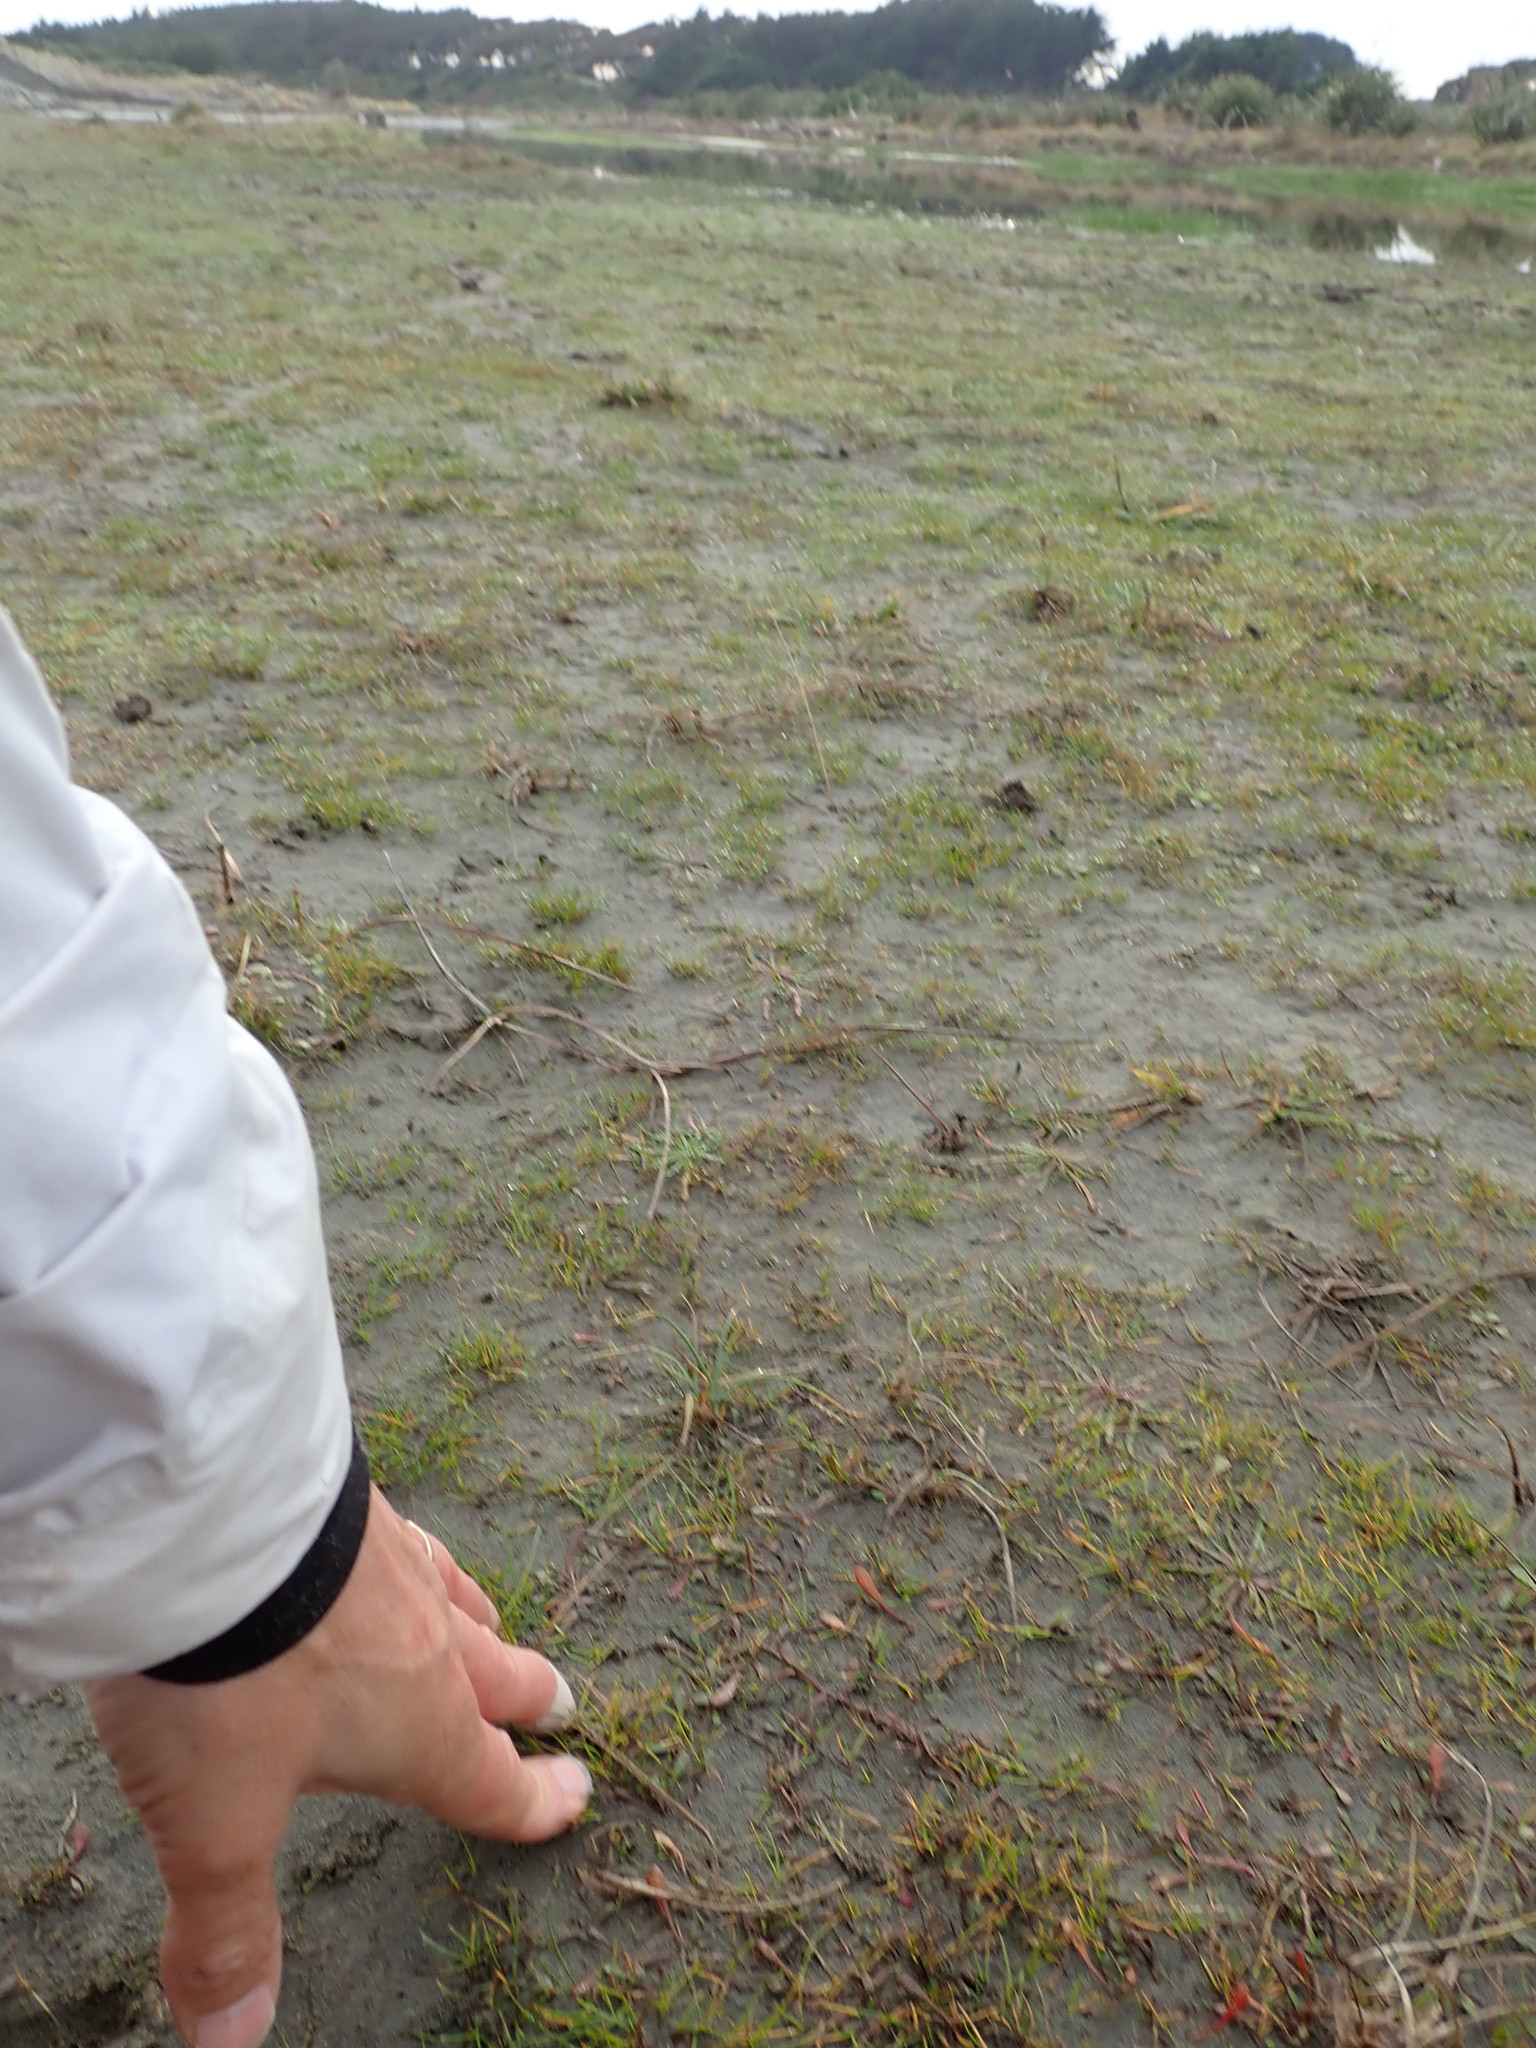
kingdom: Plantae
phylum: Tracheophyta
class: Magnoliopsida
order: Asterales
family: Goodeniaceae
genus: Goodenia
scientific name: Goodenia radicans
